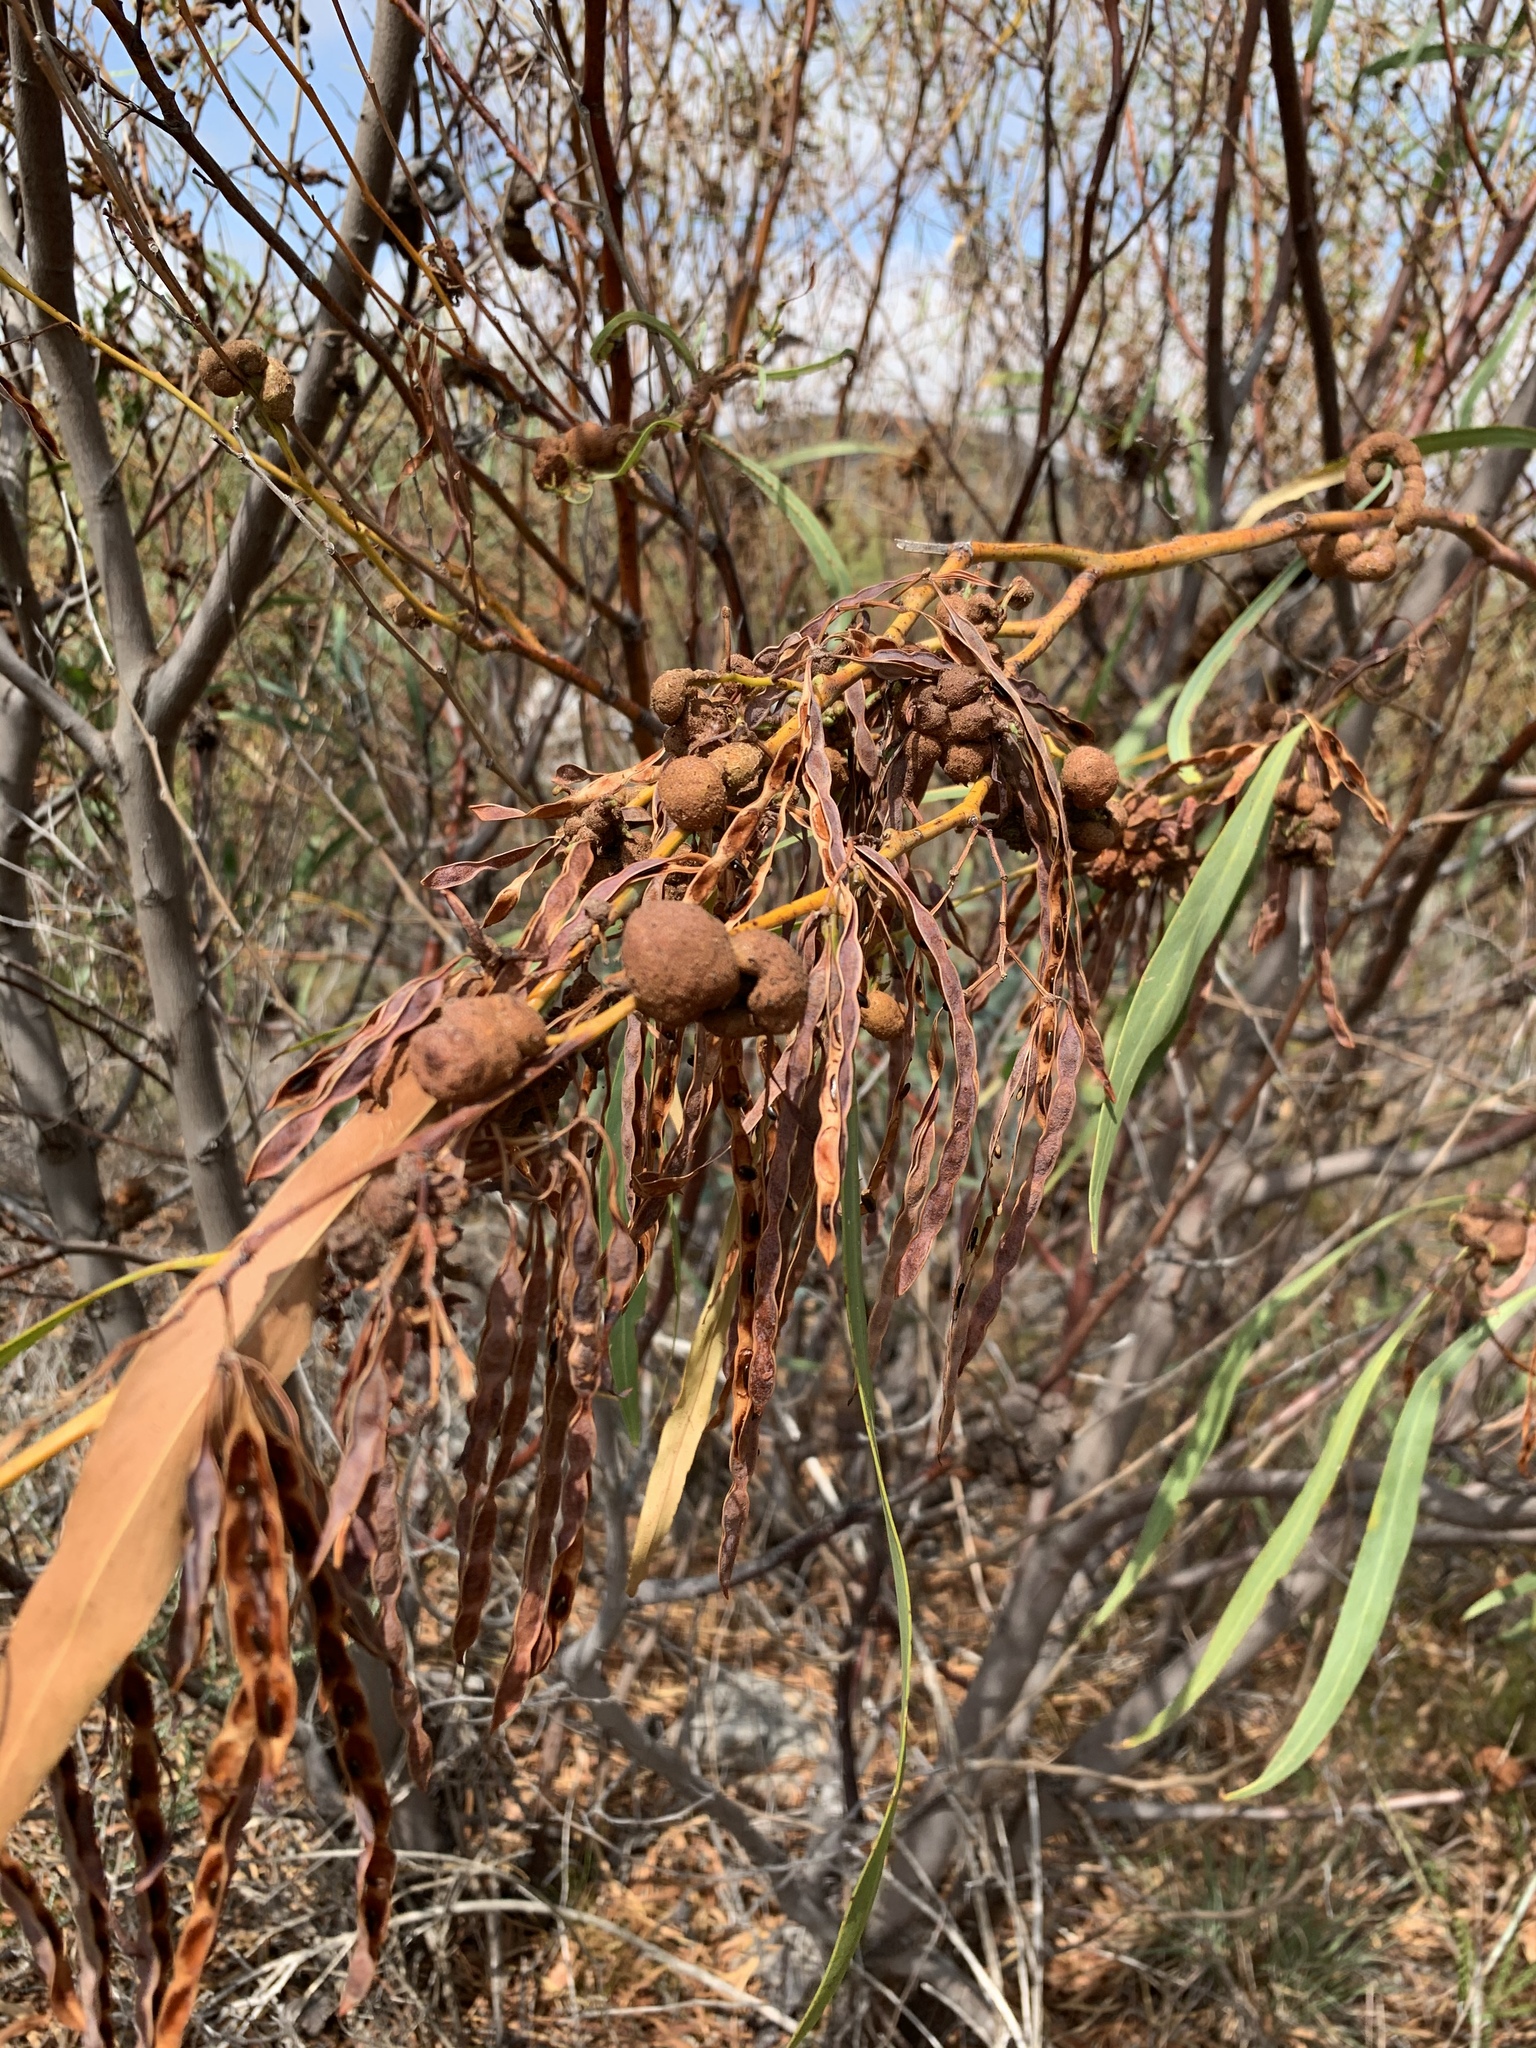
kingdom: Fungi
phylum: Basidiomycota
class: Pucciniomycetes
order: Pucciniales
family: Uromycladiaceae
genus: Uromycladium
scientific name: Uromycladium morrisii
